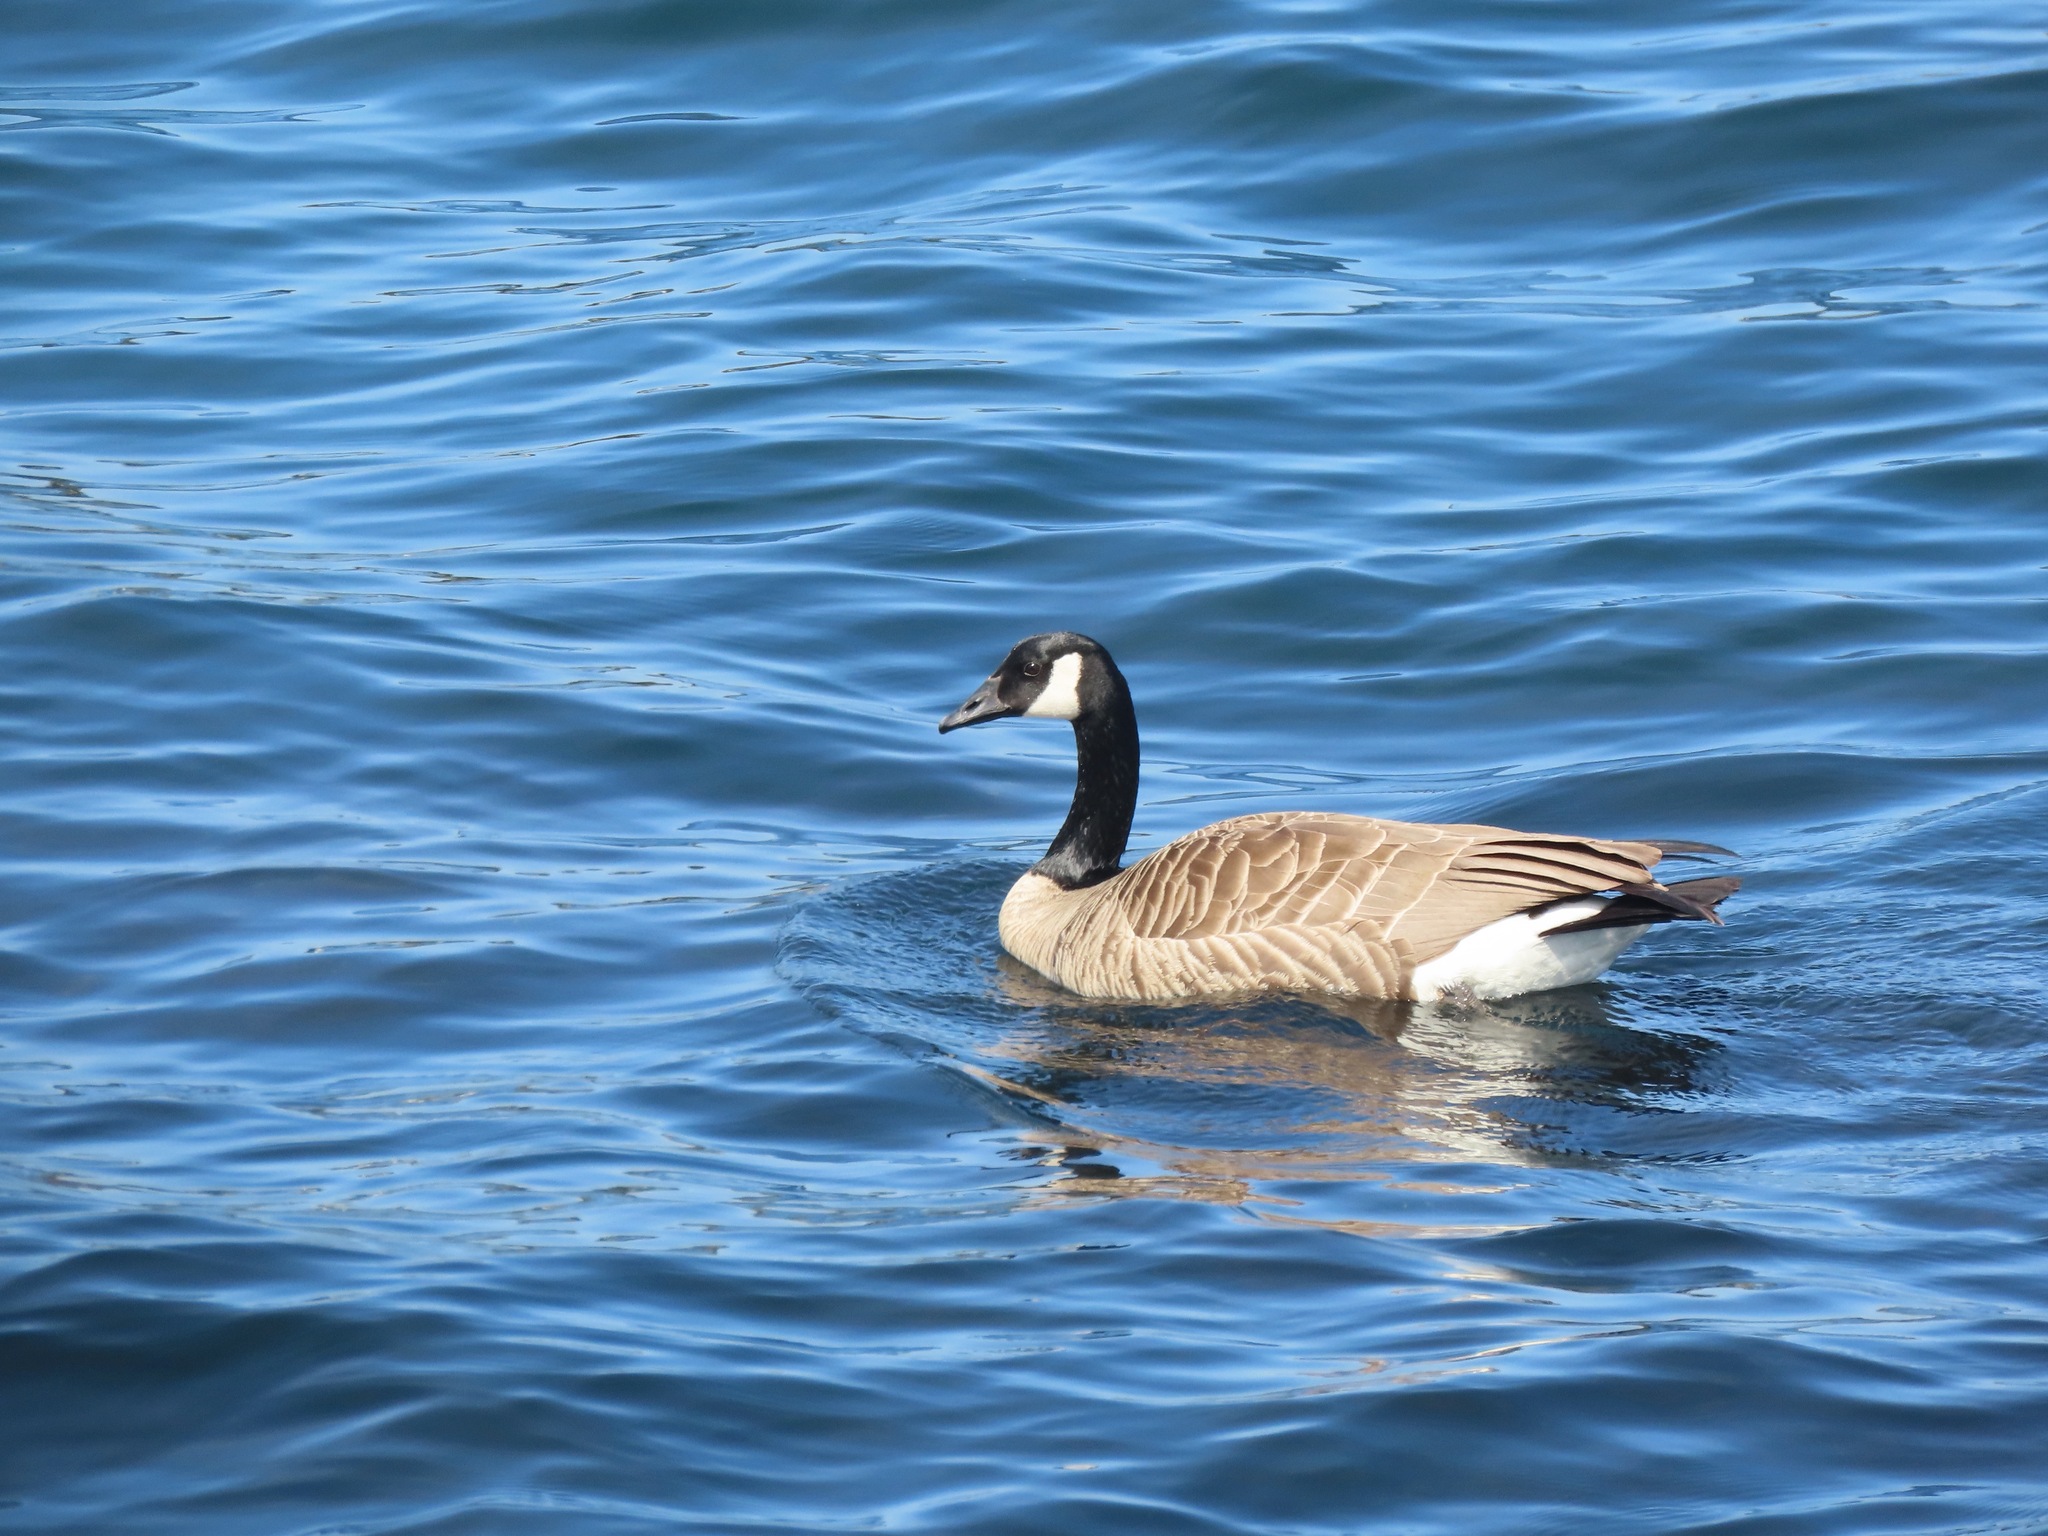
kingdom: Animalia
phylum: Chordata
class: Aves
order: Anseriformes
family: Anatidae
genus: Branta
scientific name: Branta canadensis
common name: Canada goose
